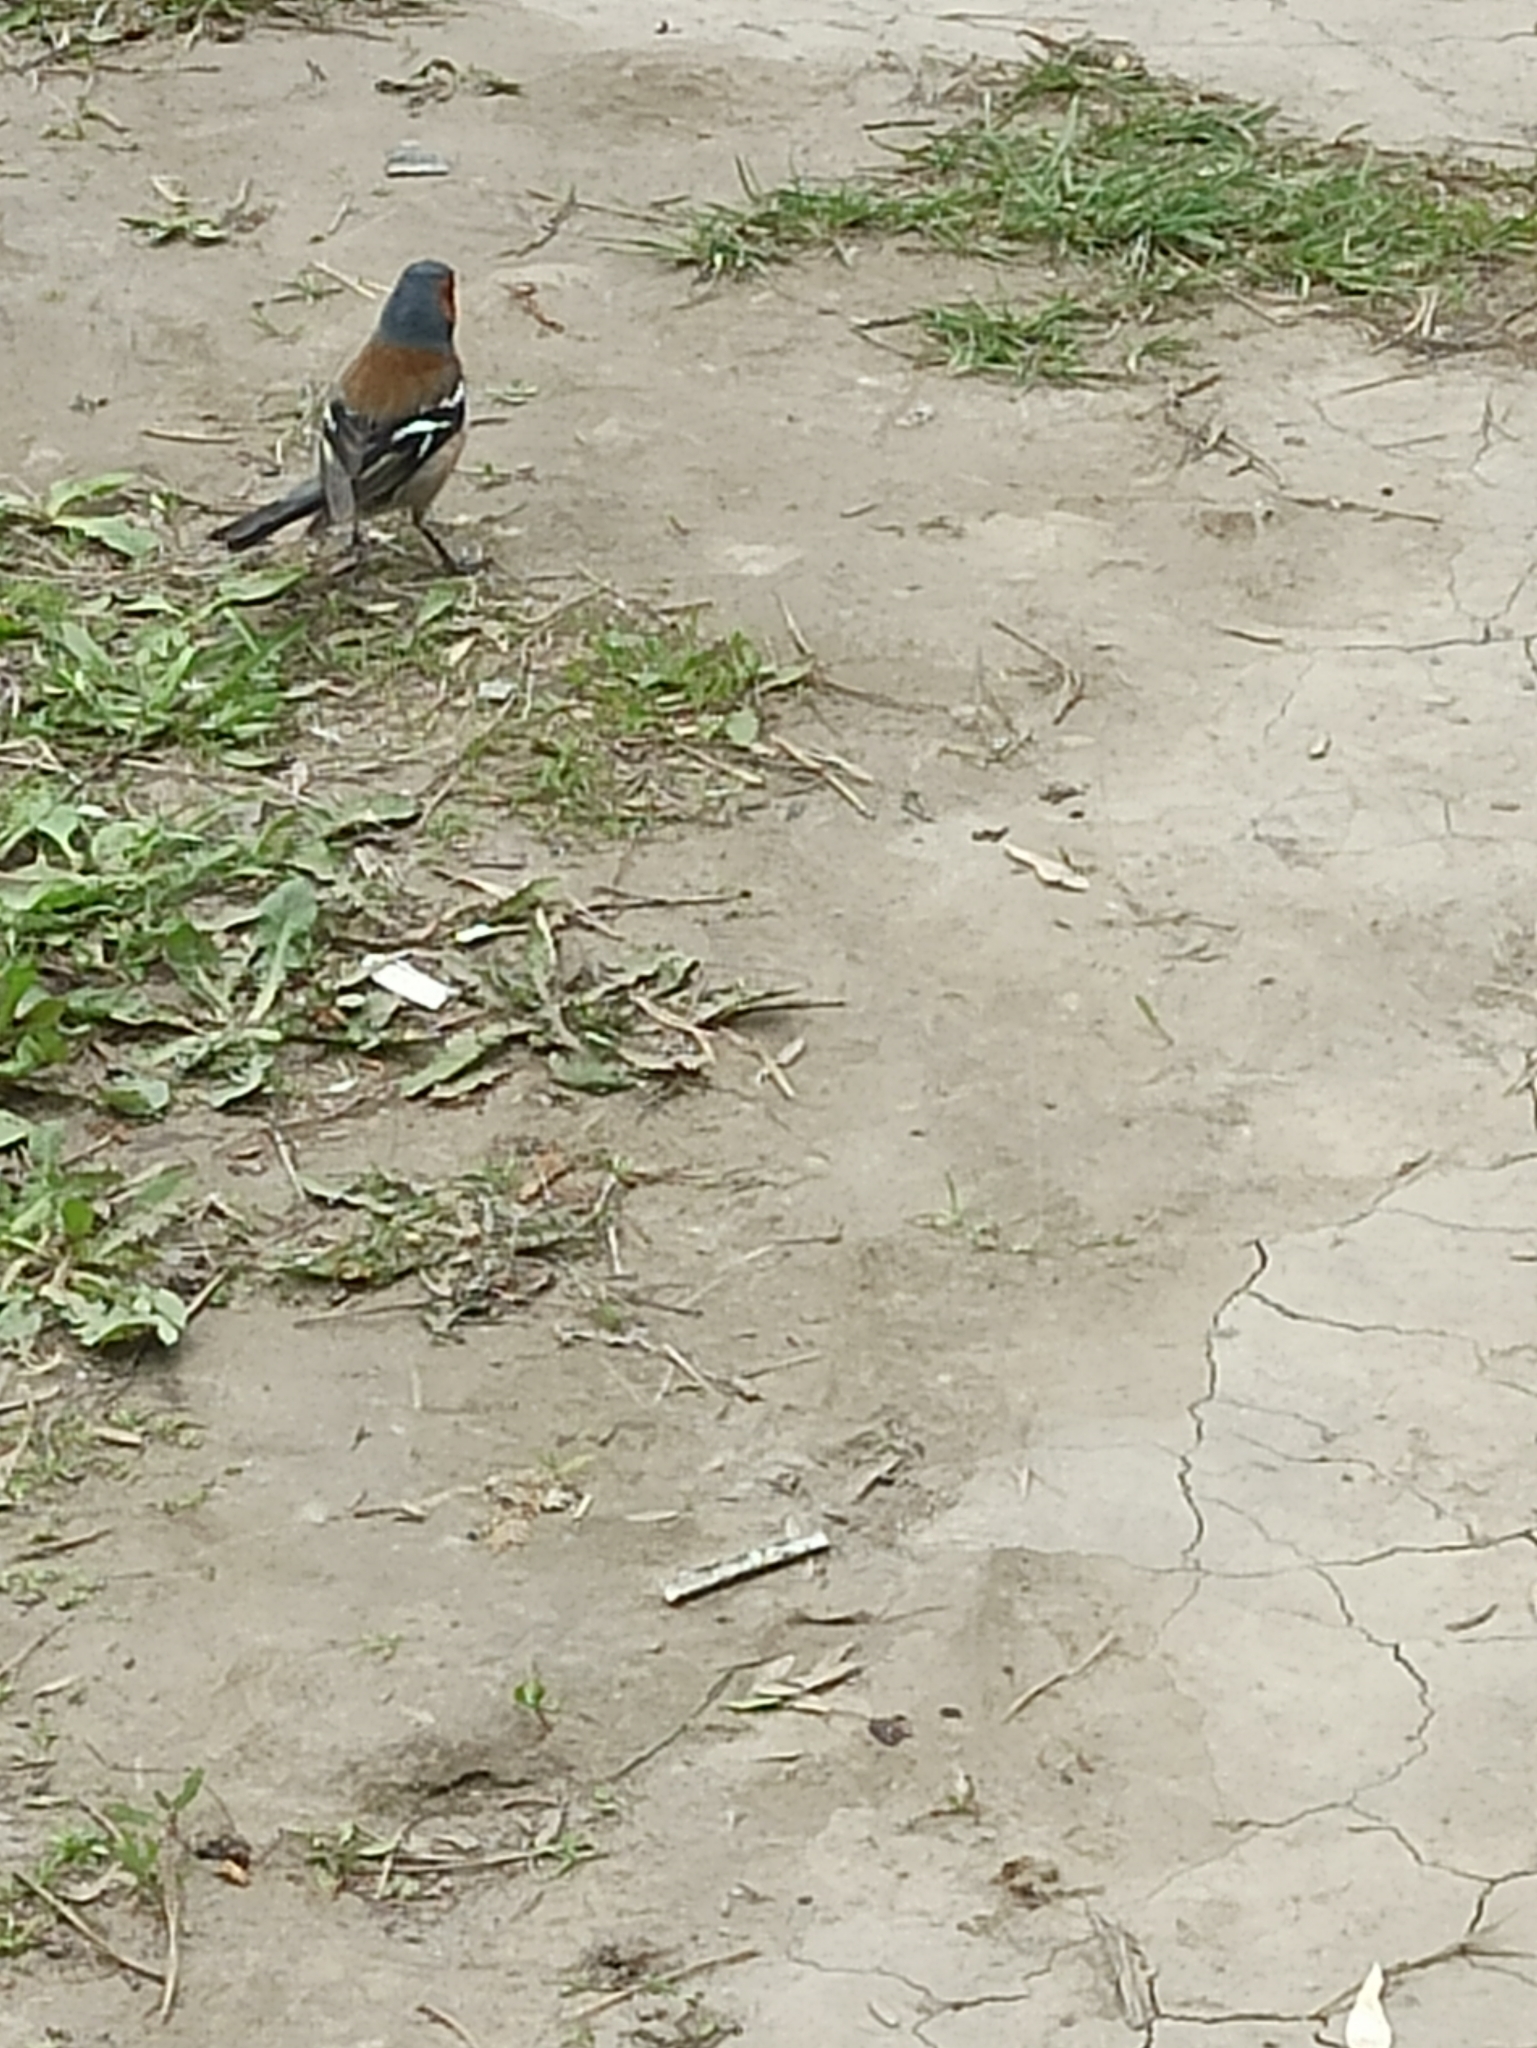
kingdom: Animalia
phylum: Chordata
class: Aves
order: Passeriformes
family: Fringillidae
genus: Fringilla
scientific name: Fringilla coelebs
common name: Common chaffinch
